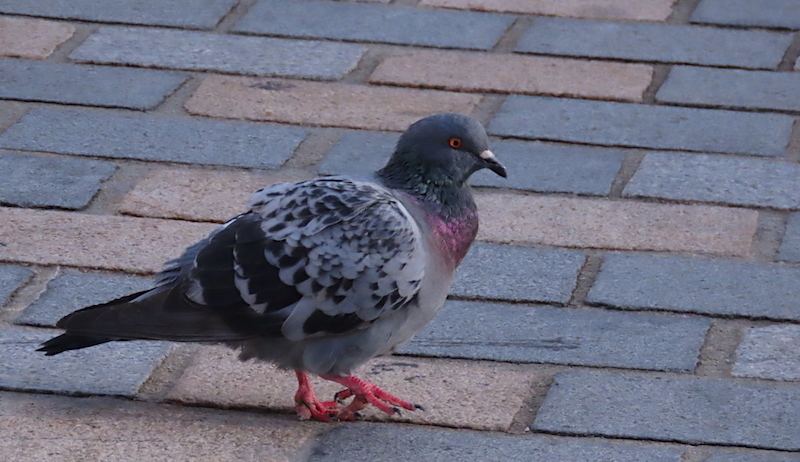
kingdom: Animalia
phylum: Chordata
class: Aves
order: Columbiformes
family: Columbidae
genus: Columba
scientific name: Columba livia
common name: Rock pigeon
